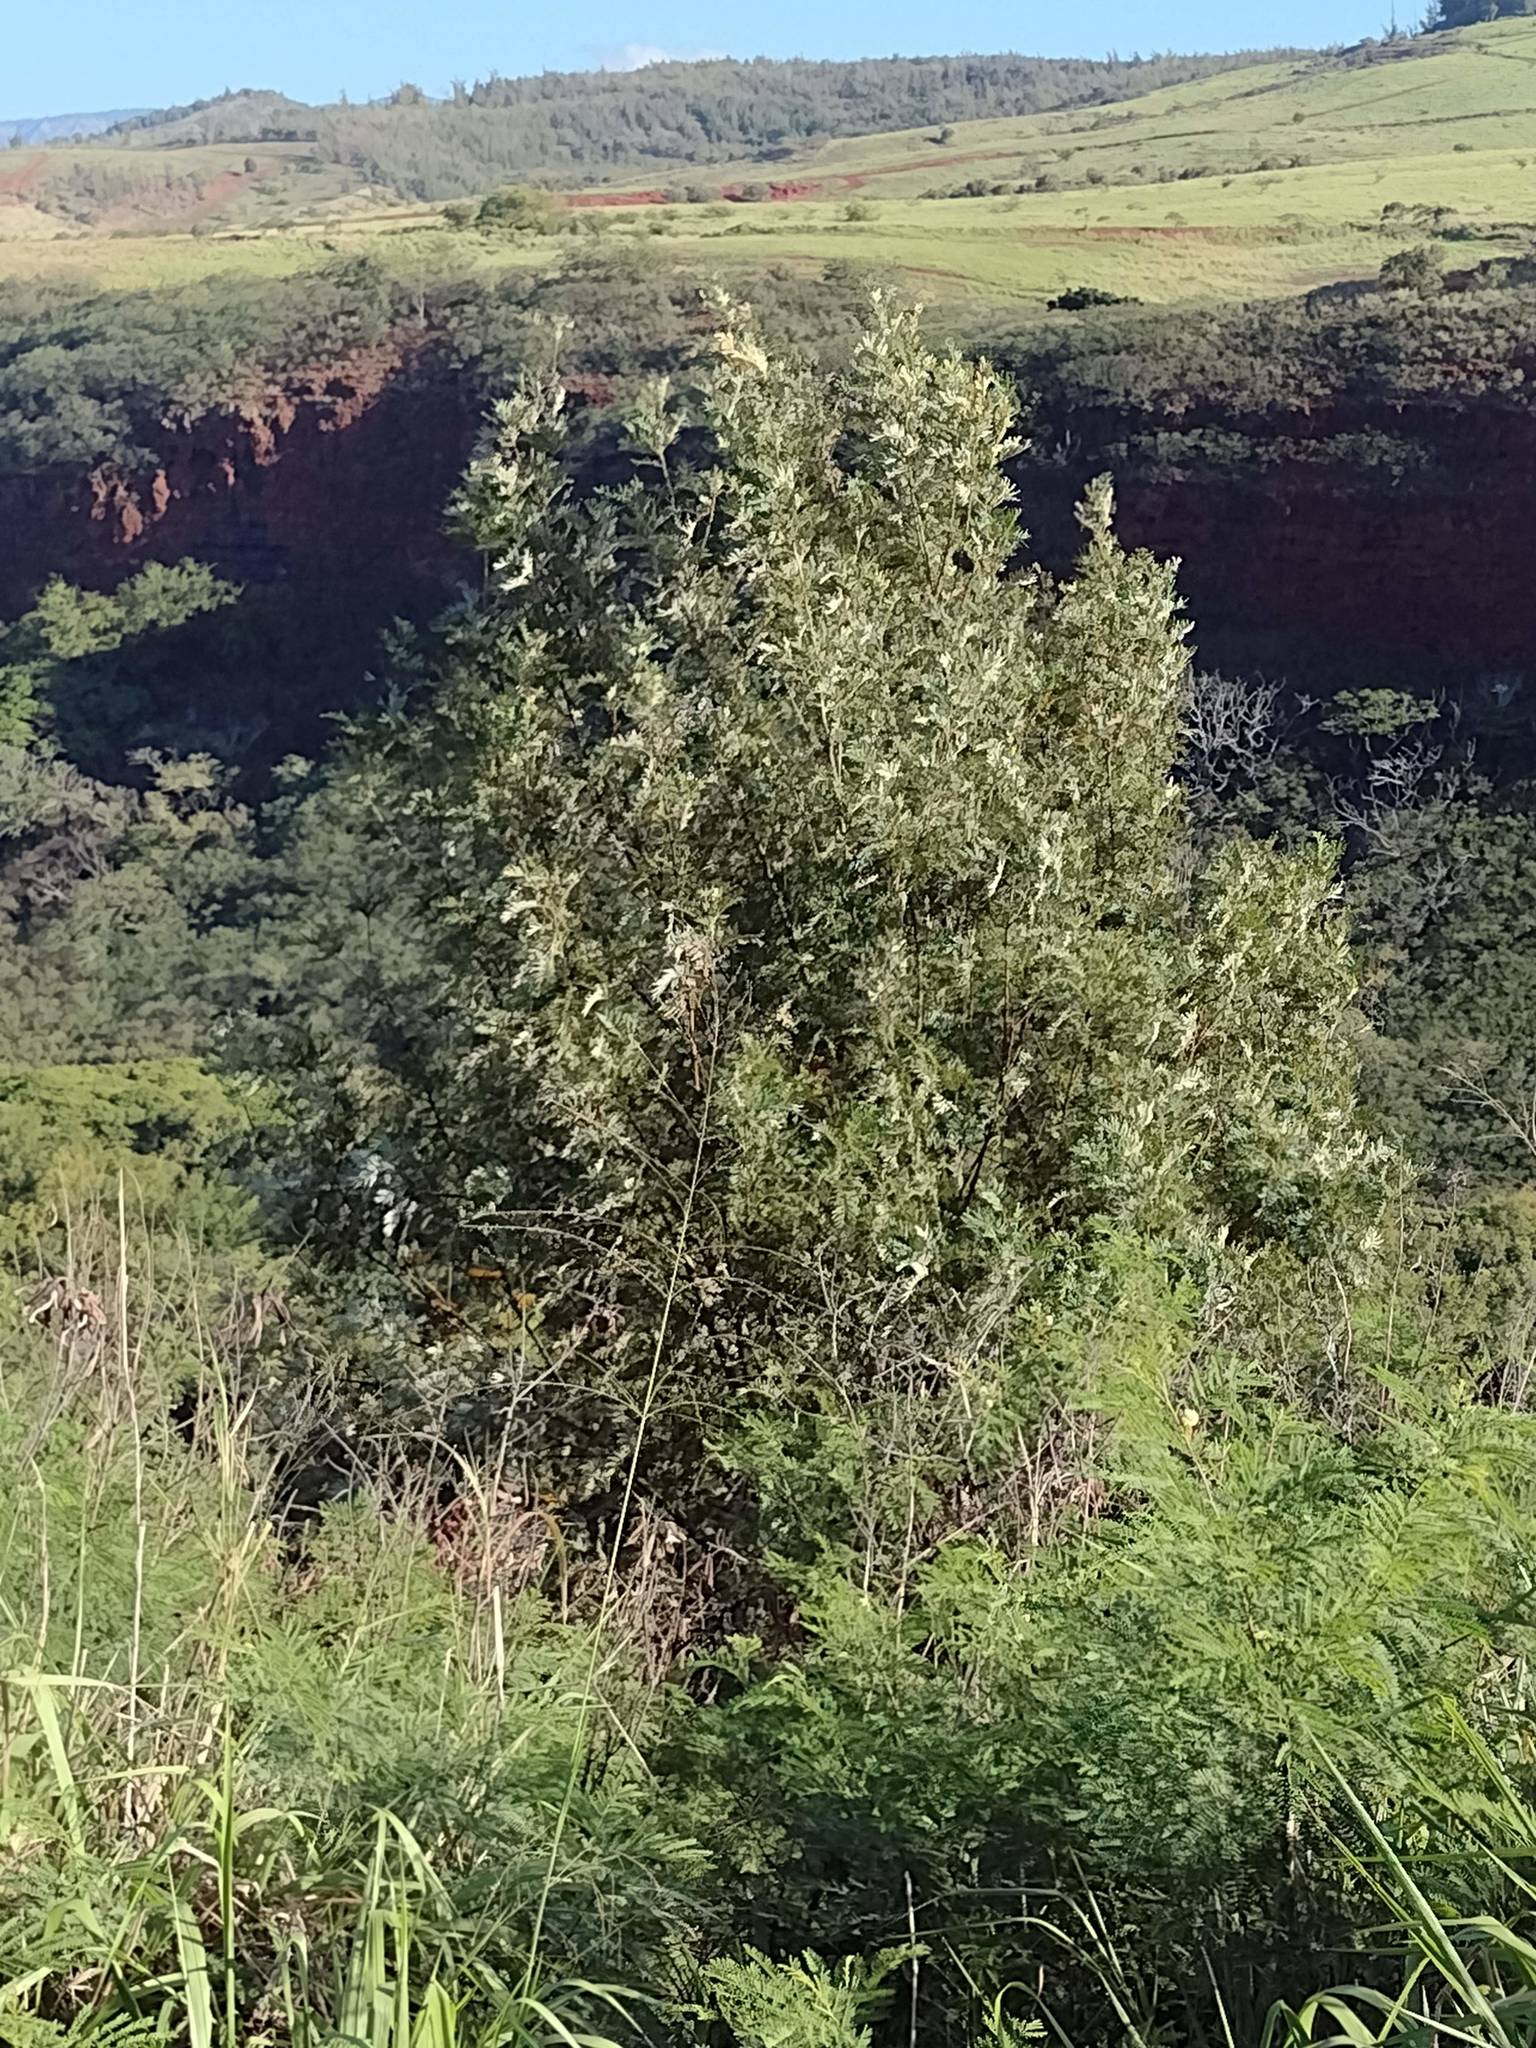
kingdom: Plantae
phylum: Tracheophyta
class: Magnoliopsida
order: Proteales
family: Proteaceae
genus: Grevillea
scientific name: Grevillea robusta
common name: Silkoak
